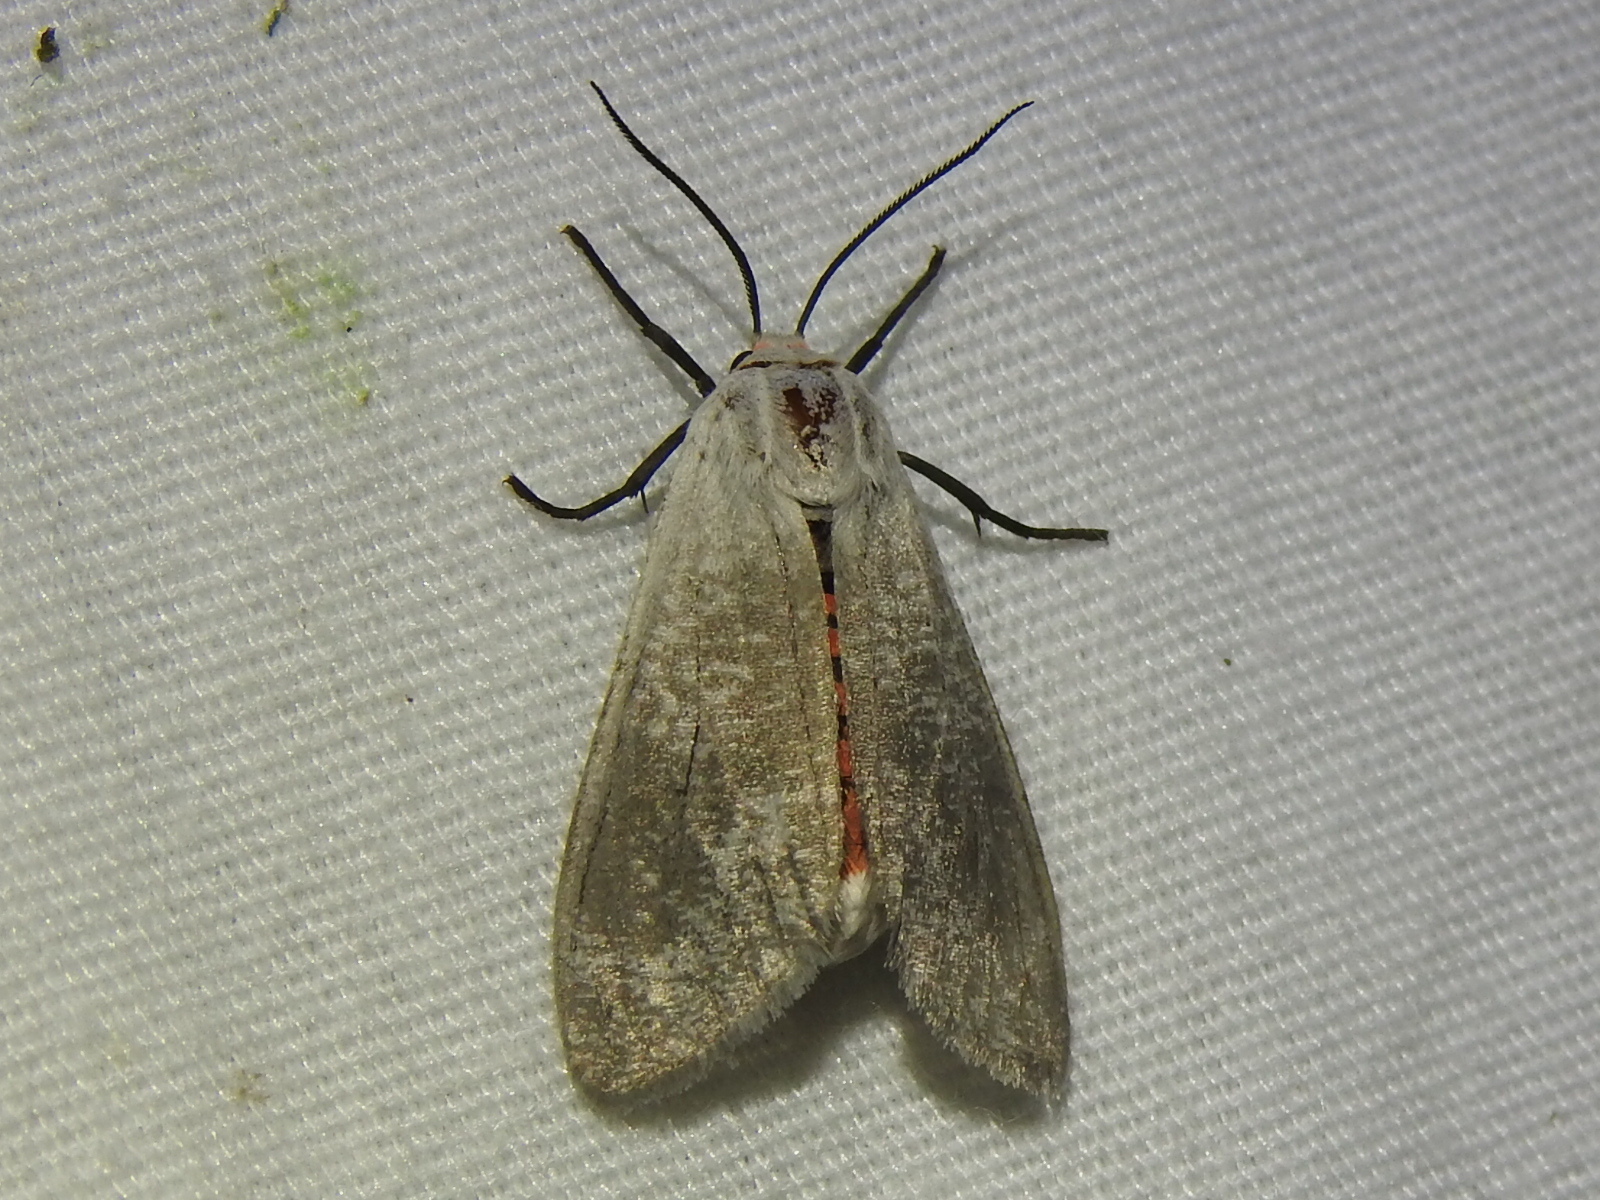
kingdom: Animalia
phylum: Arthropoda
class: Insecta
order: Lepidoptera
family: Erebidae
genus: Euchaetes
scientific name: Euchaetes bolteri
